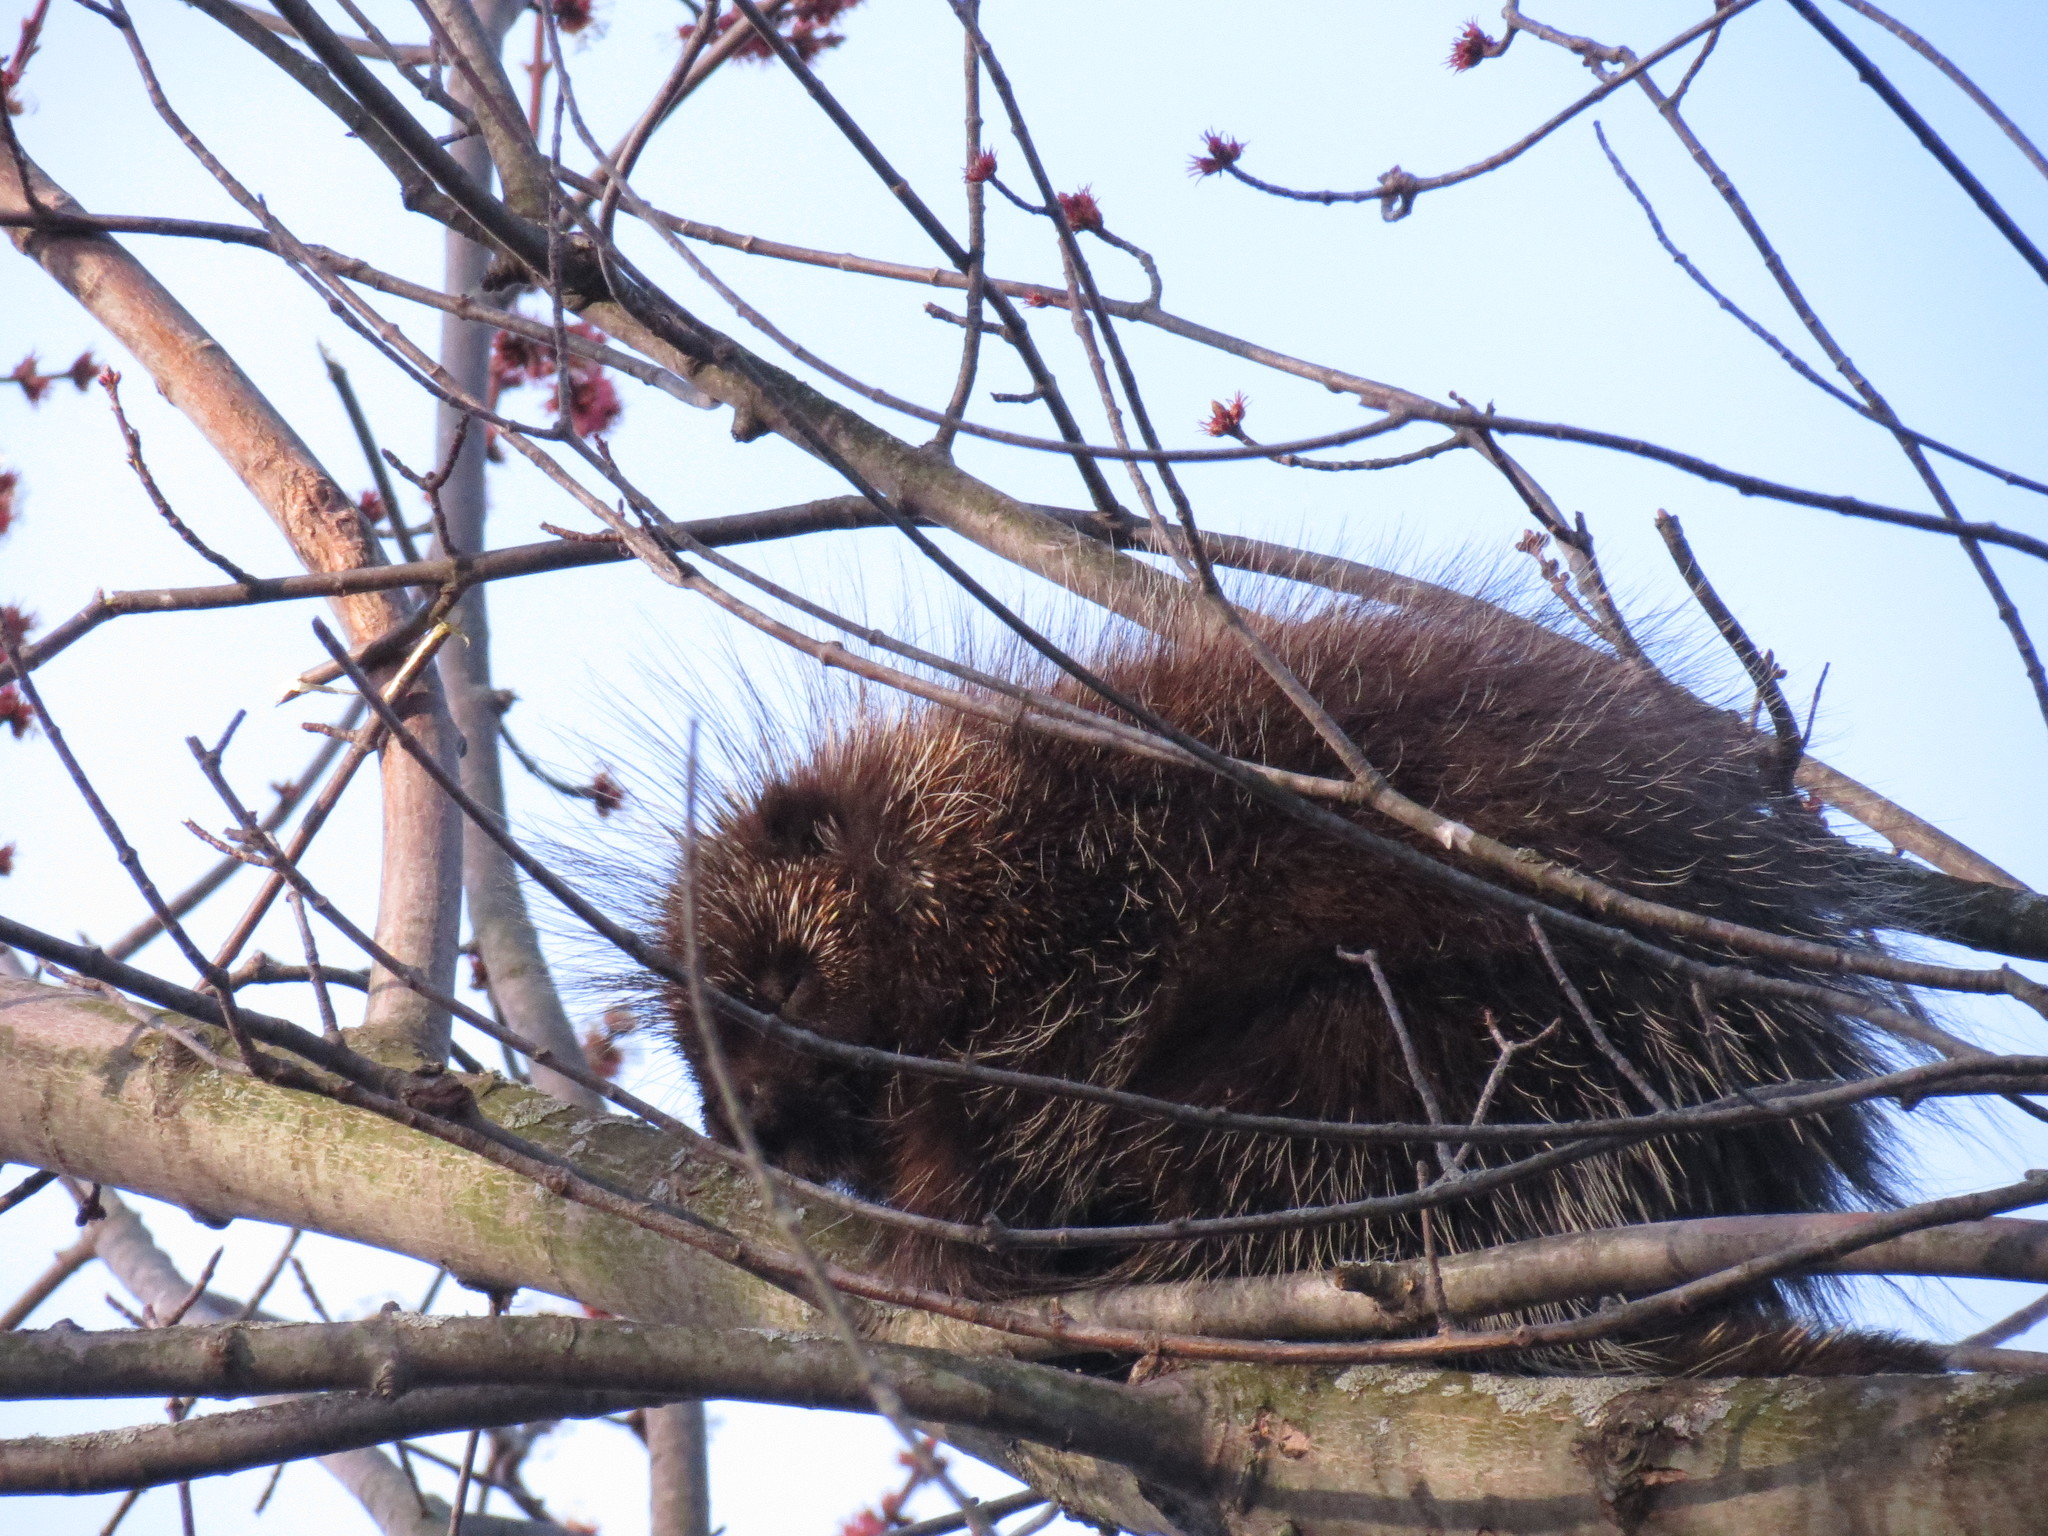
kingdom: Animalia
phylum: Chordata
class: Mammalia
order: Rodentia
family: Erethizontidae
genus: Erethizon
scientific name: Erethizon dorsatus
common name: North american porcupine
